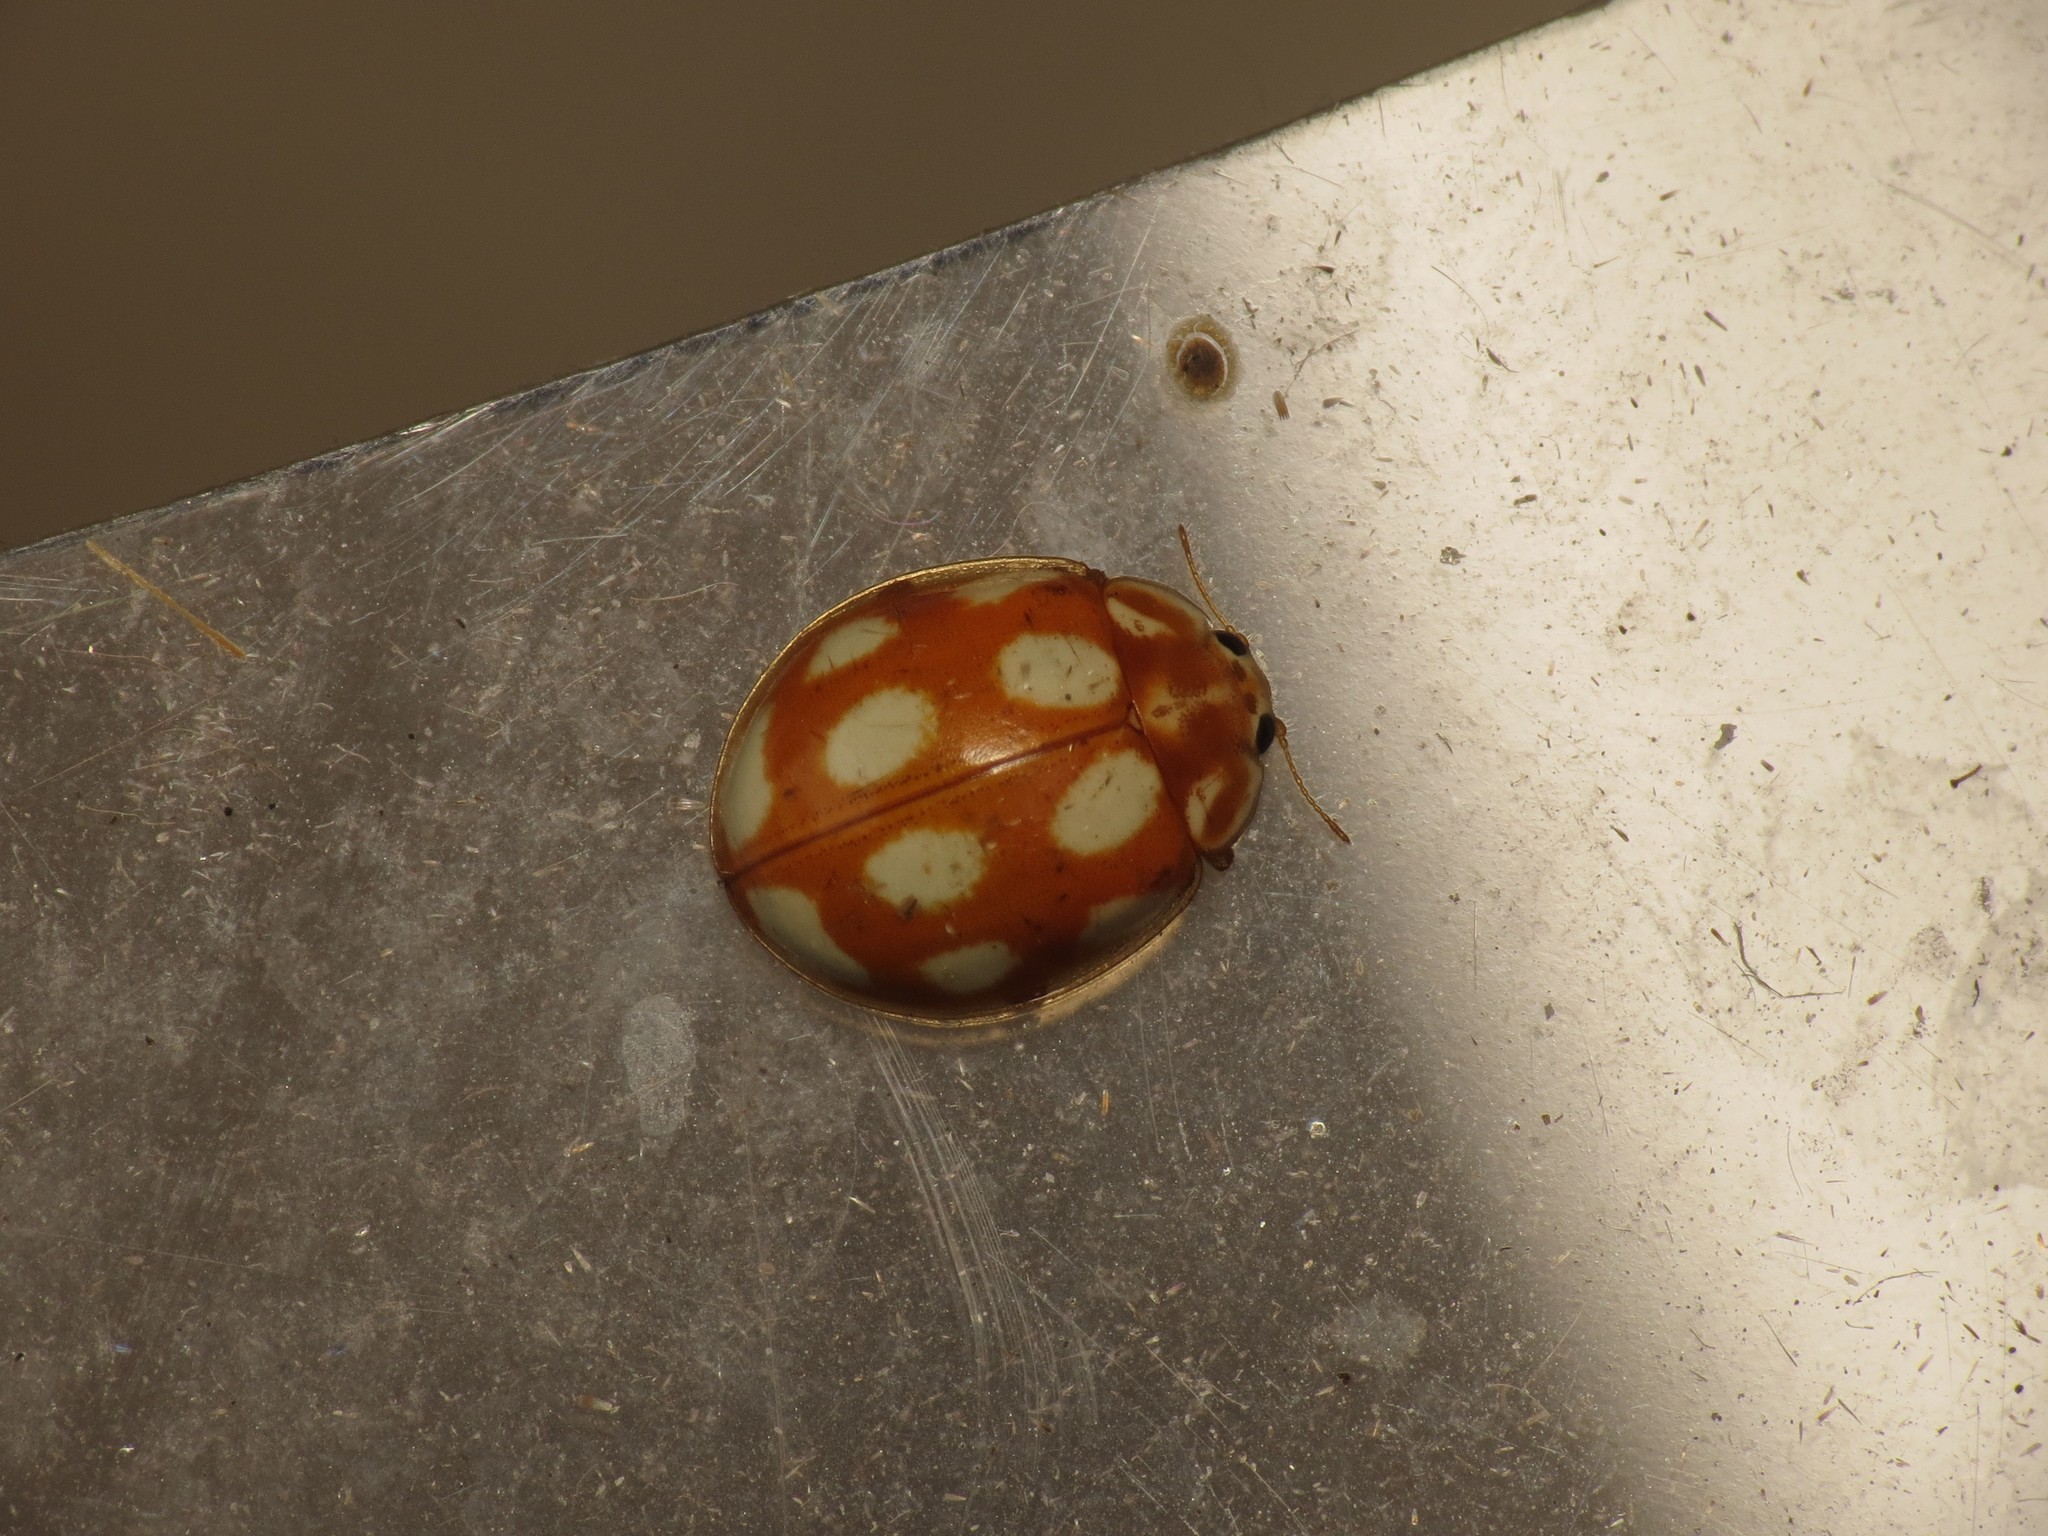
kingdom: Animalia
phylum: Arthropoda
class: Insecta
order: Coleoptera
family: Coccinellidae
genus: Calvia
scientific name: Calvia decemguttata
